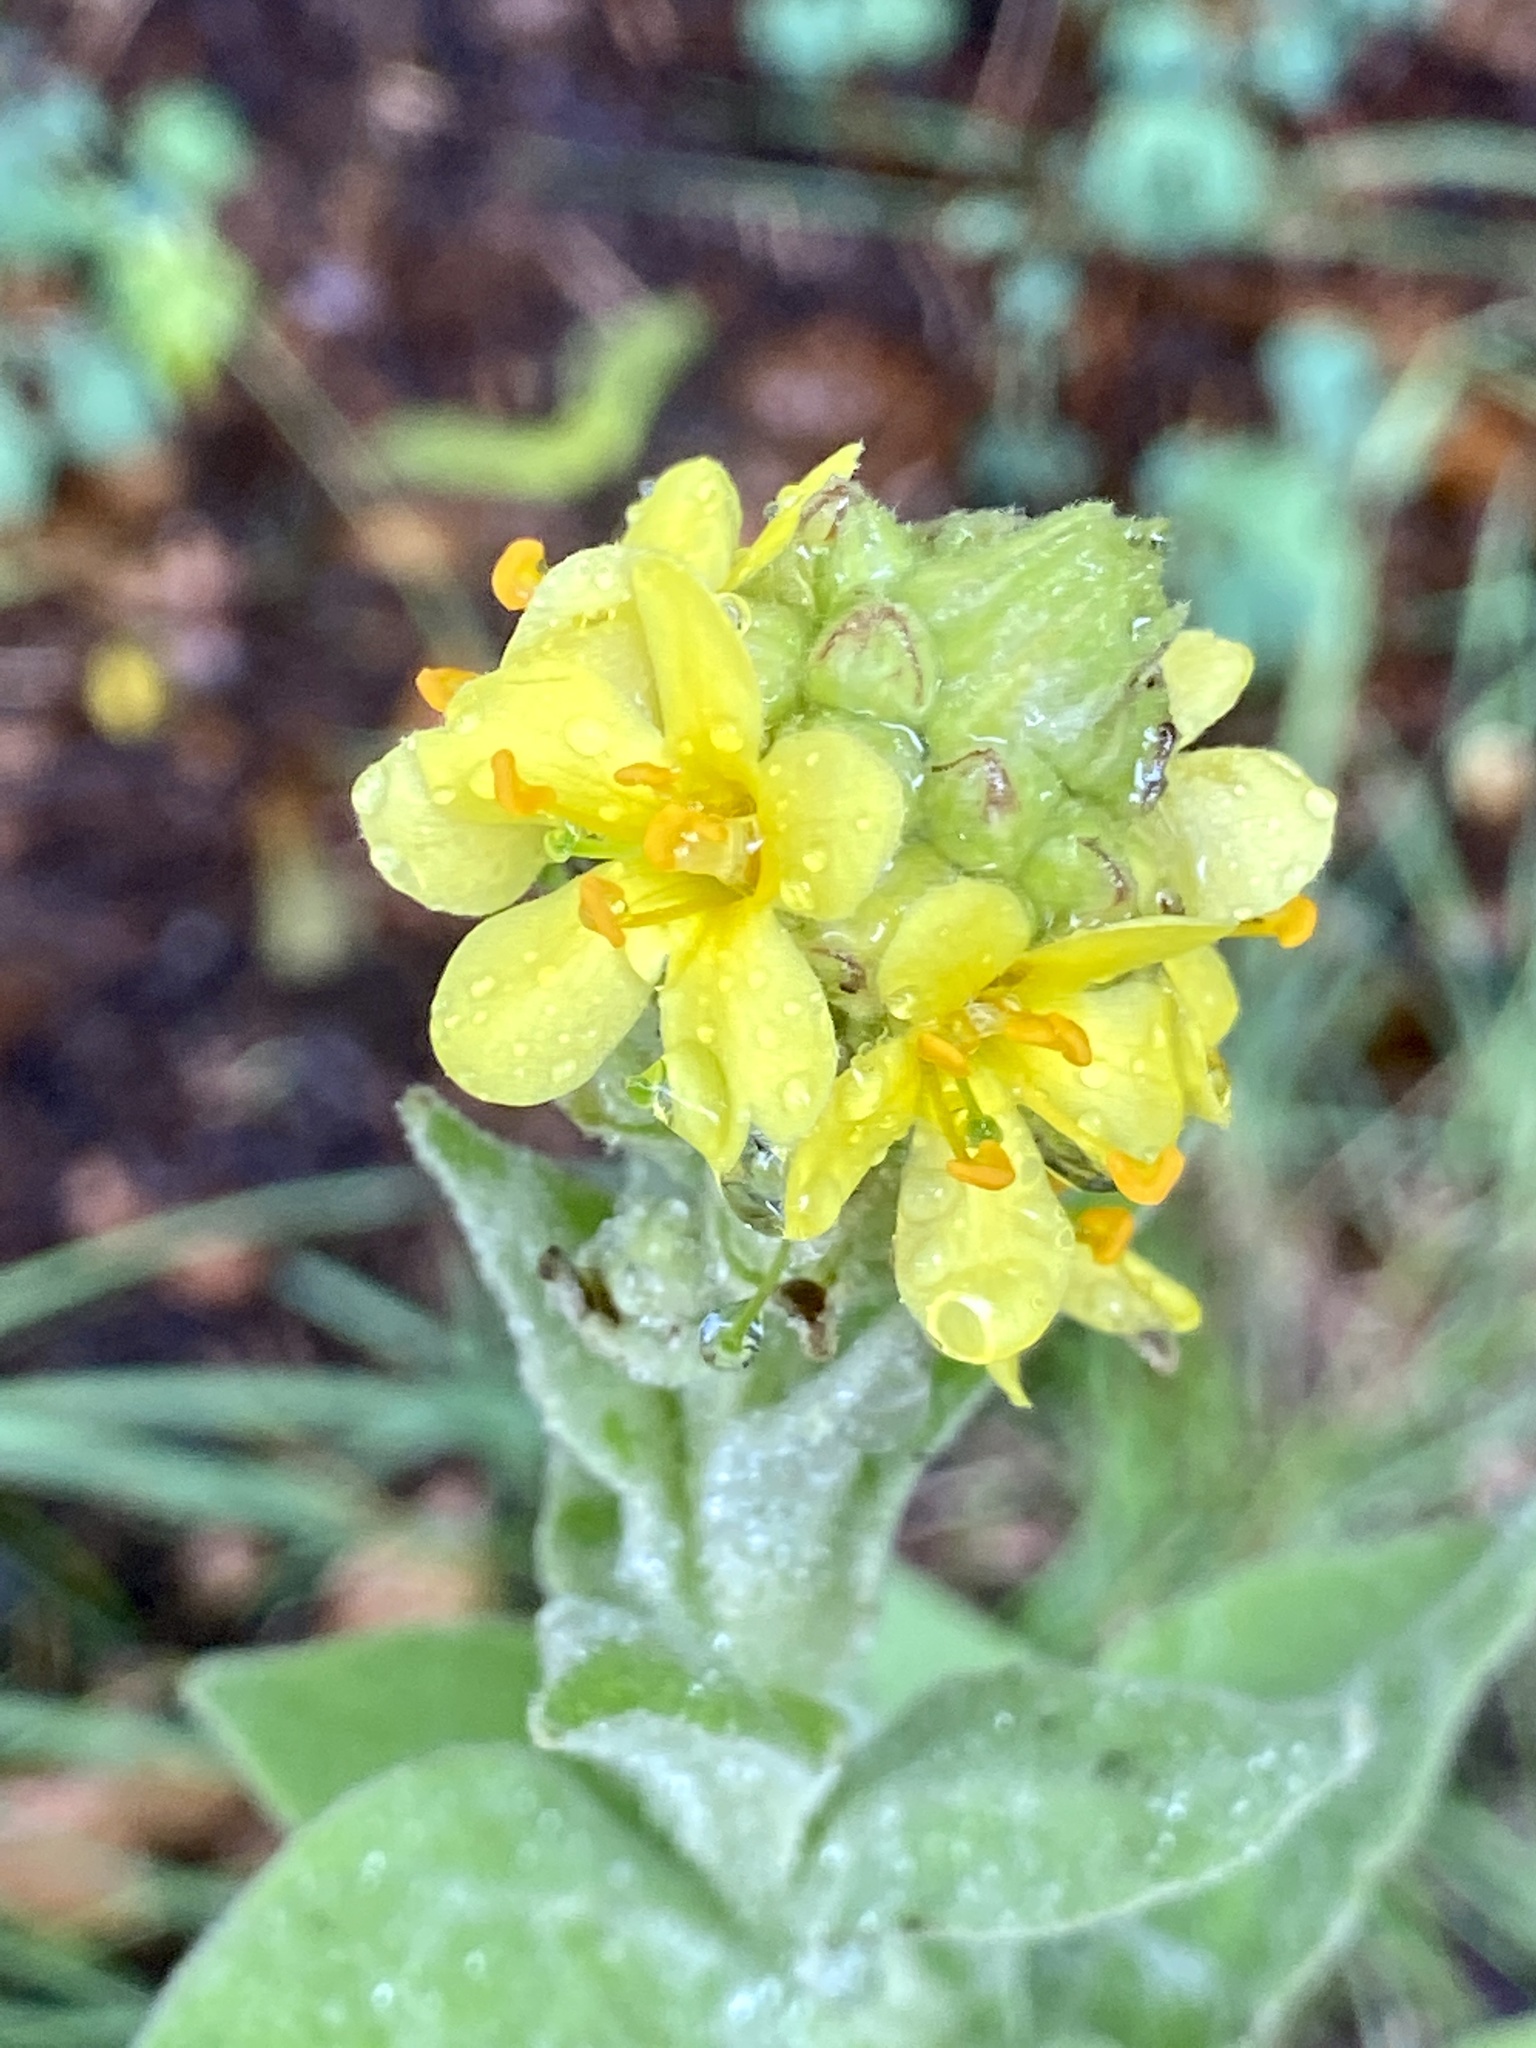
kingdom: Plantae
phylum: Tracheophyta
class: Magnoliopsida
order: Lamiales
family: Scrophulariaceae
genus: Verbascum
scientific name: Verbascum thapsus
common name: Common mullein
